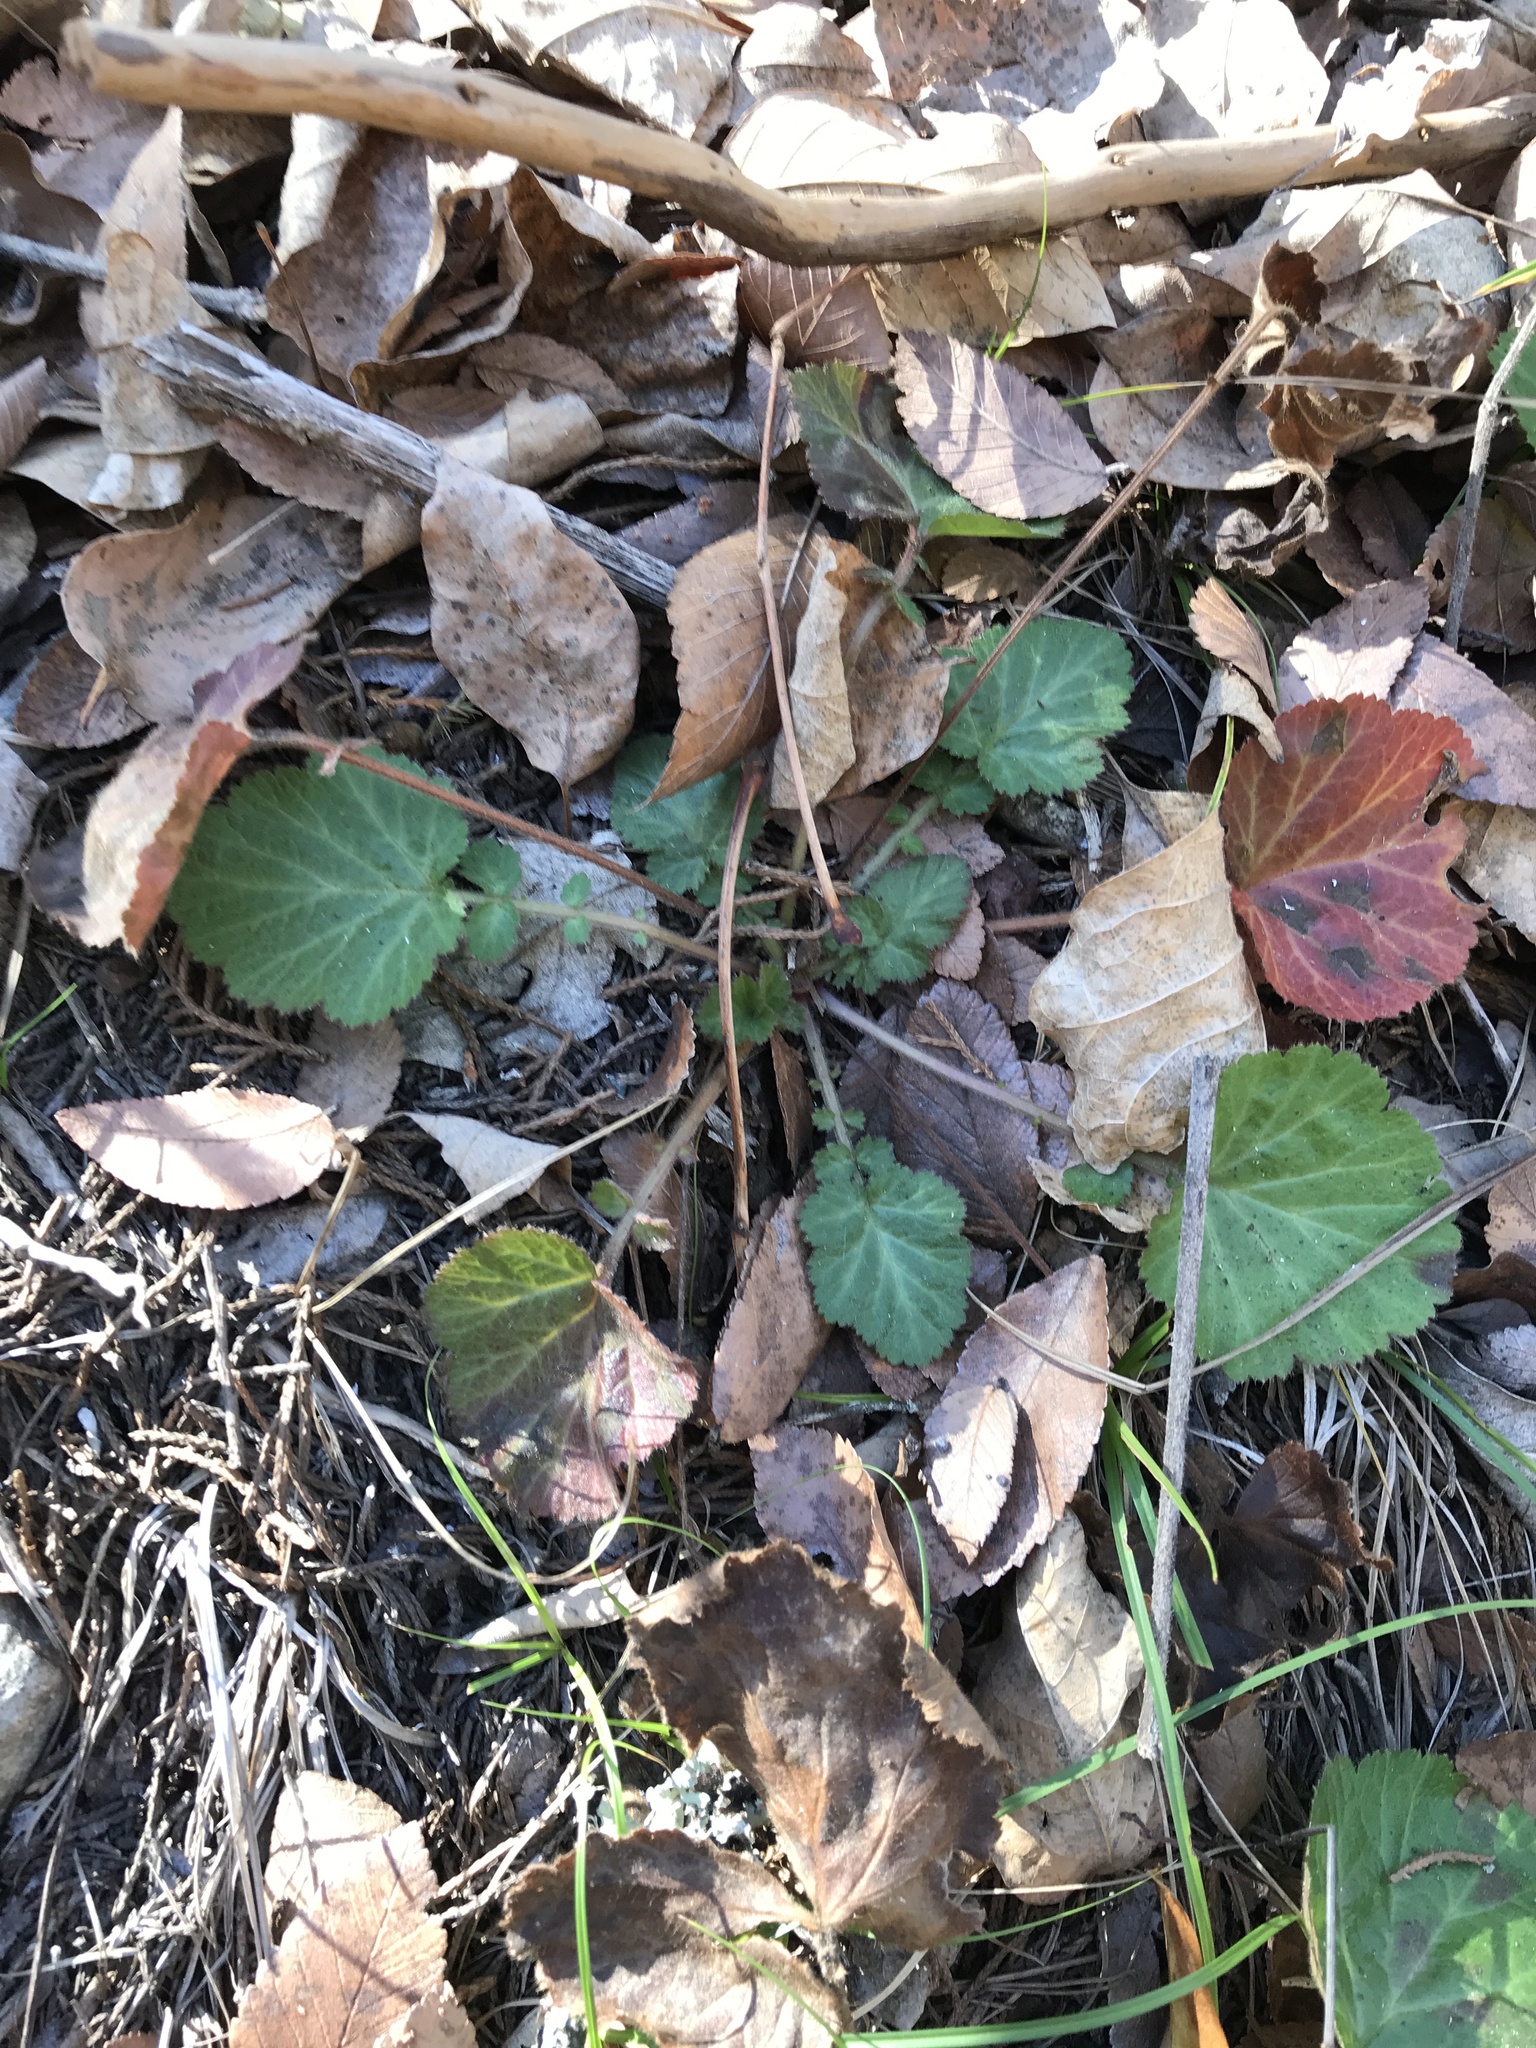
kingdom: Plantae
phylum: Tracheophyta
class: Magnoliopsida
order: Rosales
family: Rosaceae
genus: Geum
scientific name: Geum canadense
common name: White avens
